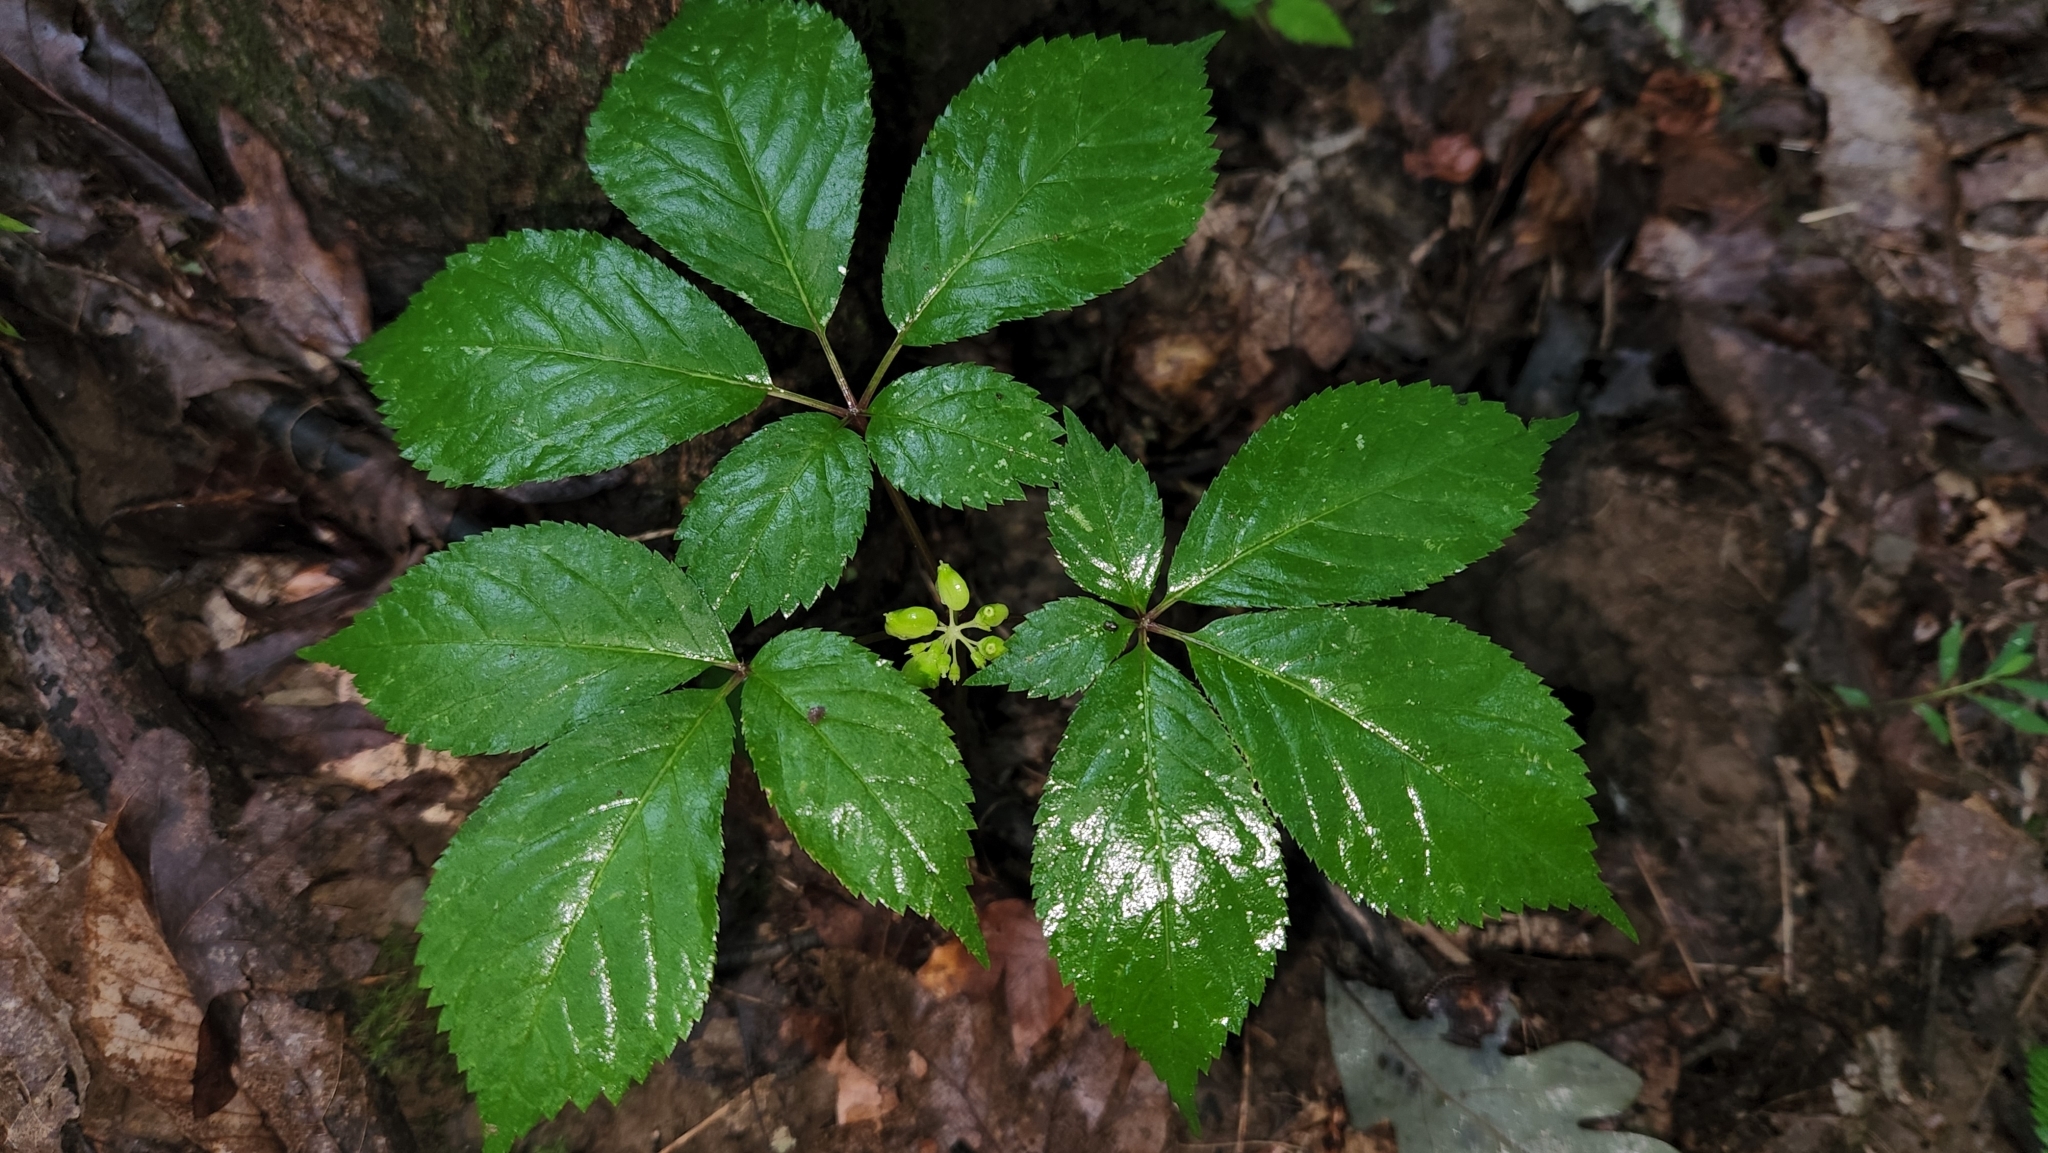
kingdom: Plantae
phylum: Tracheophyta
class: Magnoliopsida
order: Apiales
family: Araliaceae
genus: Panax
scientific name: Panax quinquefolius
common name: American ginseng
